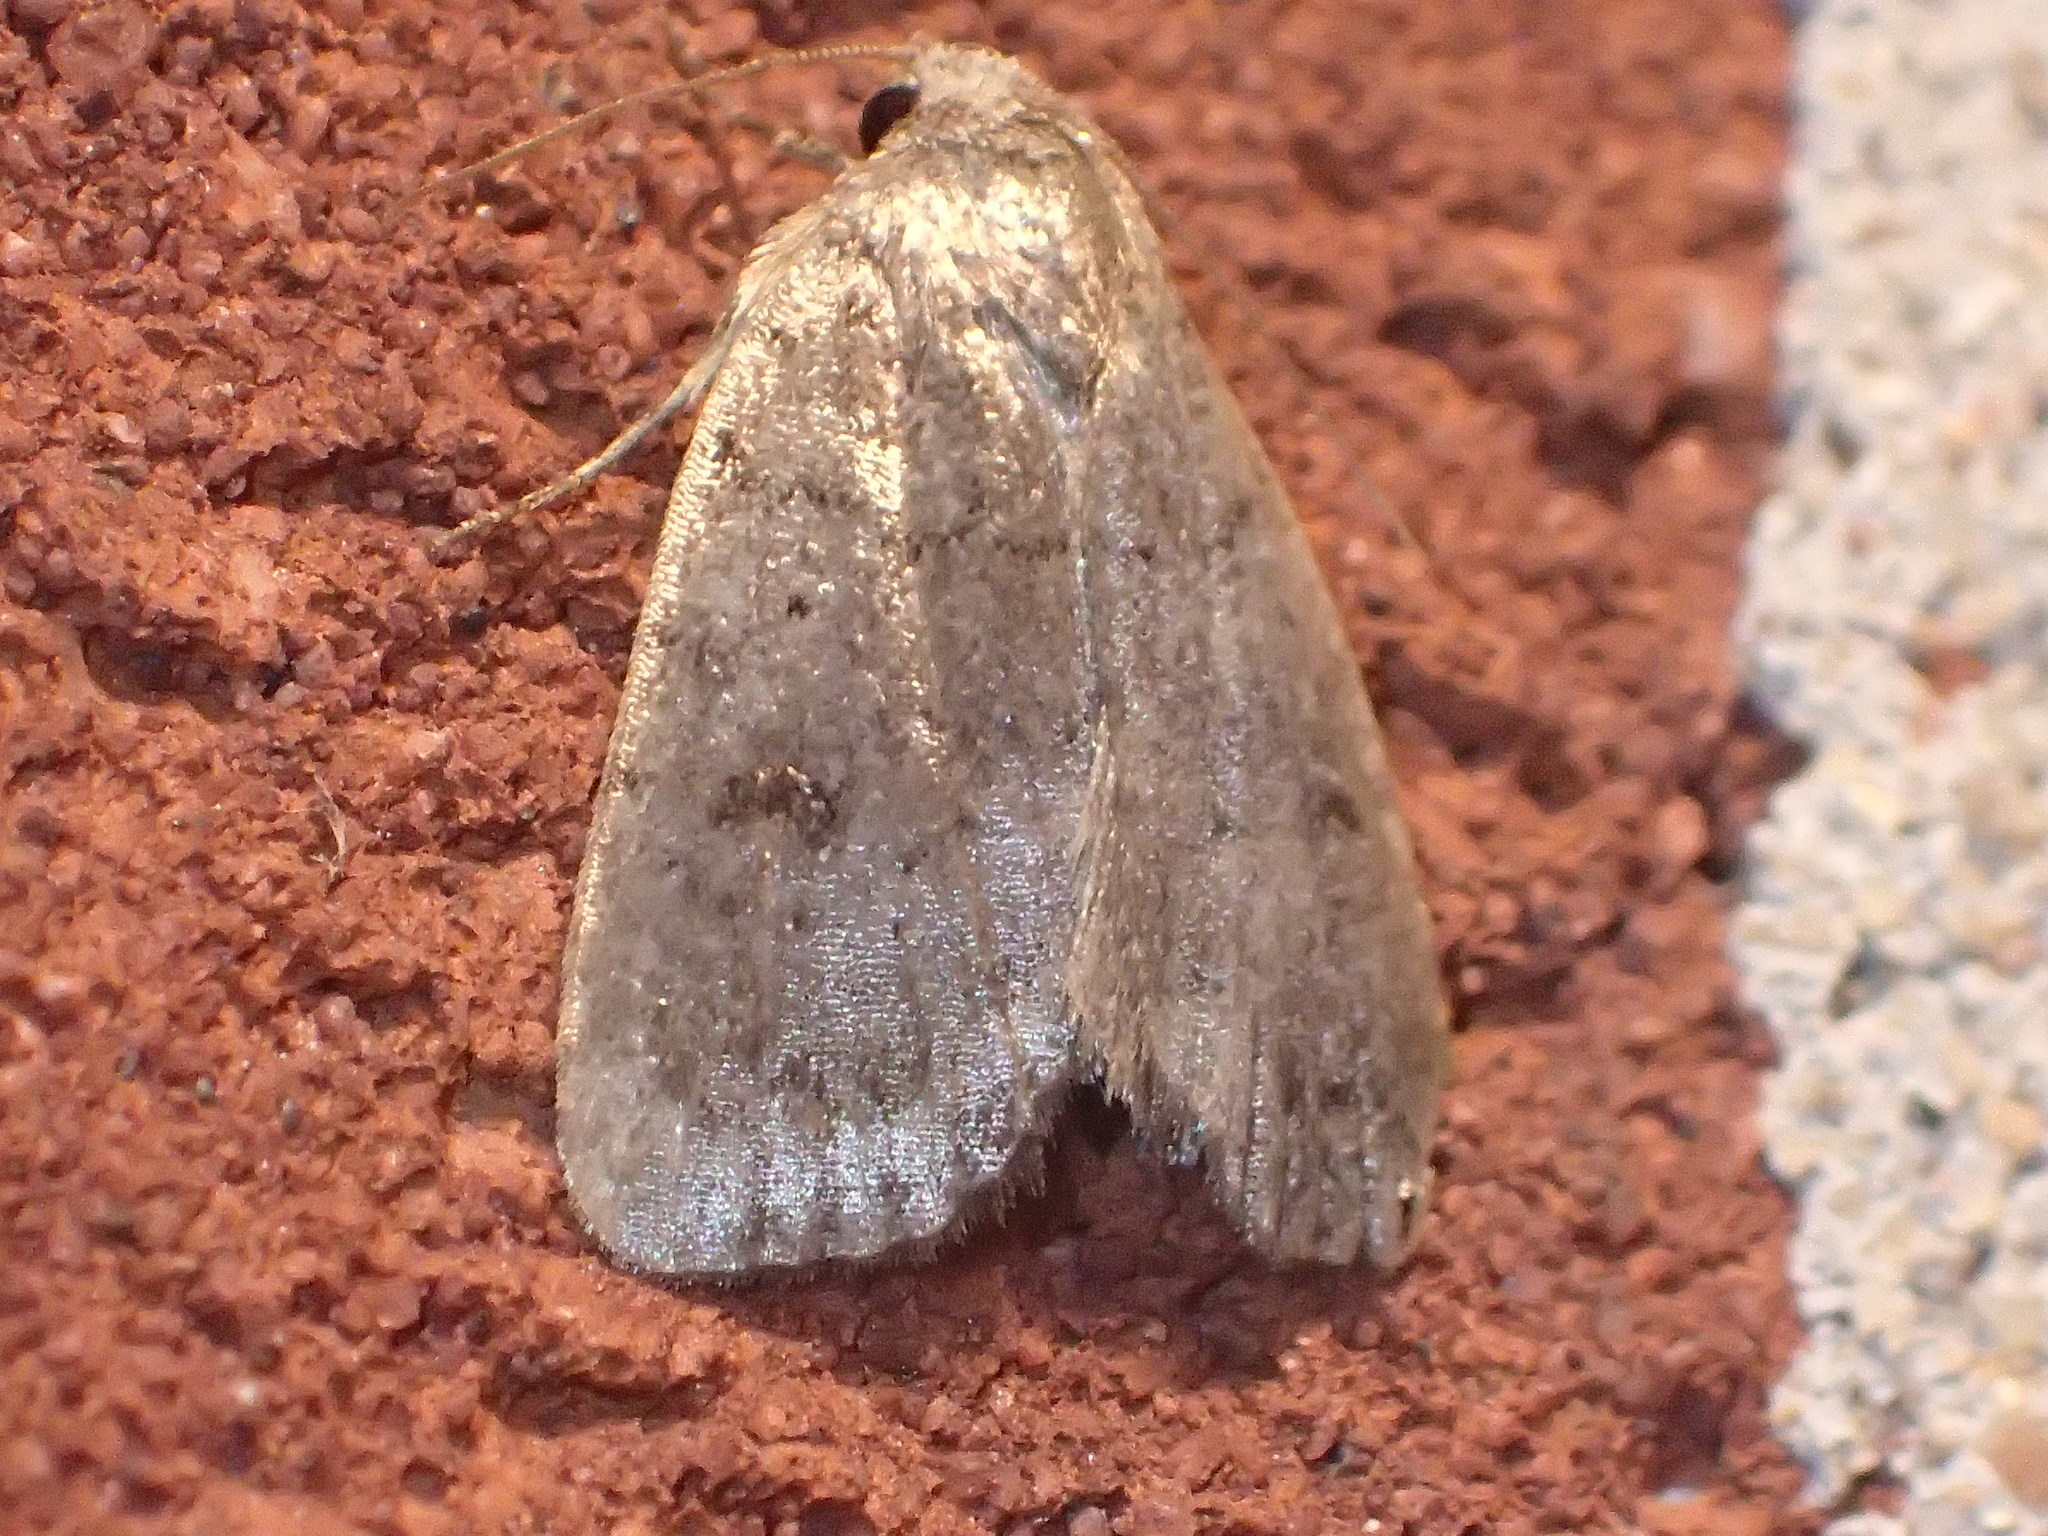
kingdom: Animalia
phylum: Arthropoda
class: Insecta
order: Lepidoptera
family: Noctuidae
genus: Athetis
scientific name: Athetis tarda
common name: Slowpoke moth
